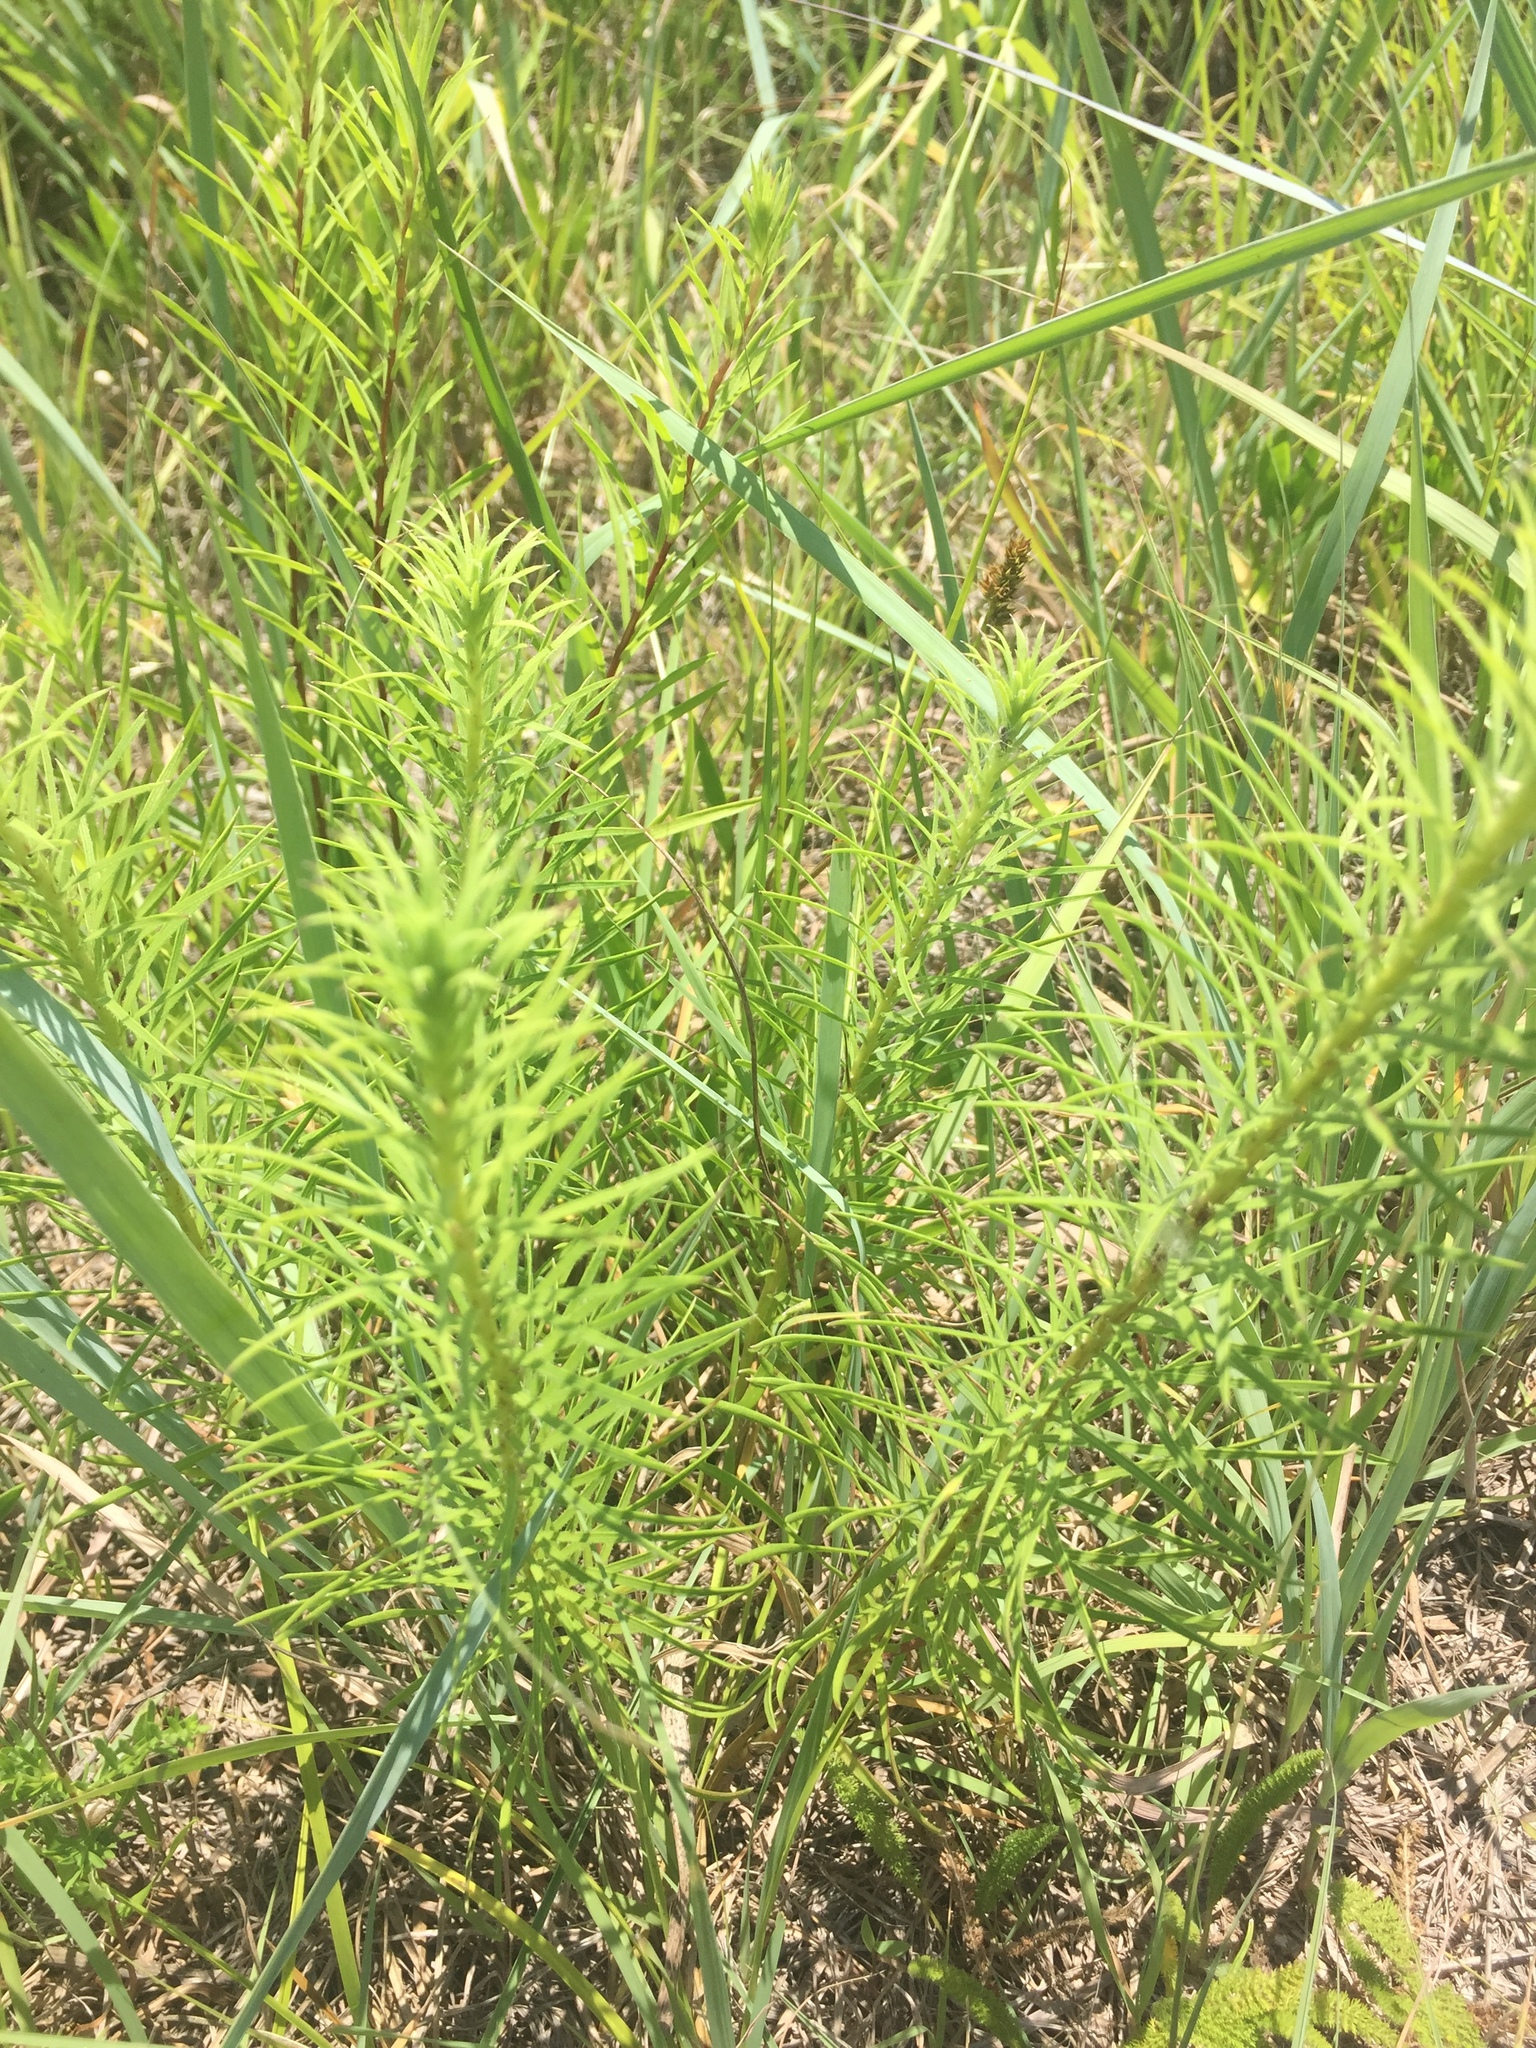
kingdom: Plantae
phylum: Tracheophyta
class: Magnoliopsida
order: Asterales
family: Asteraceae
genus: Liatris
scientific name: Liatris punctata
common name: Dotted gayfeather
